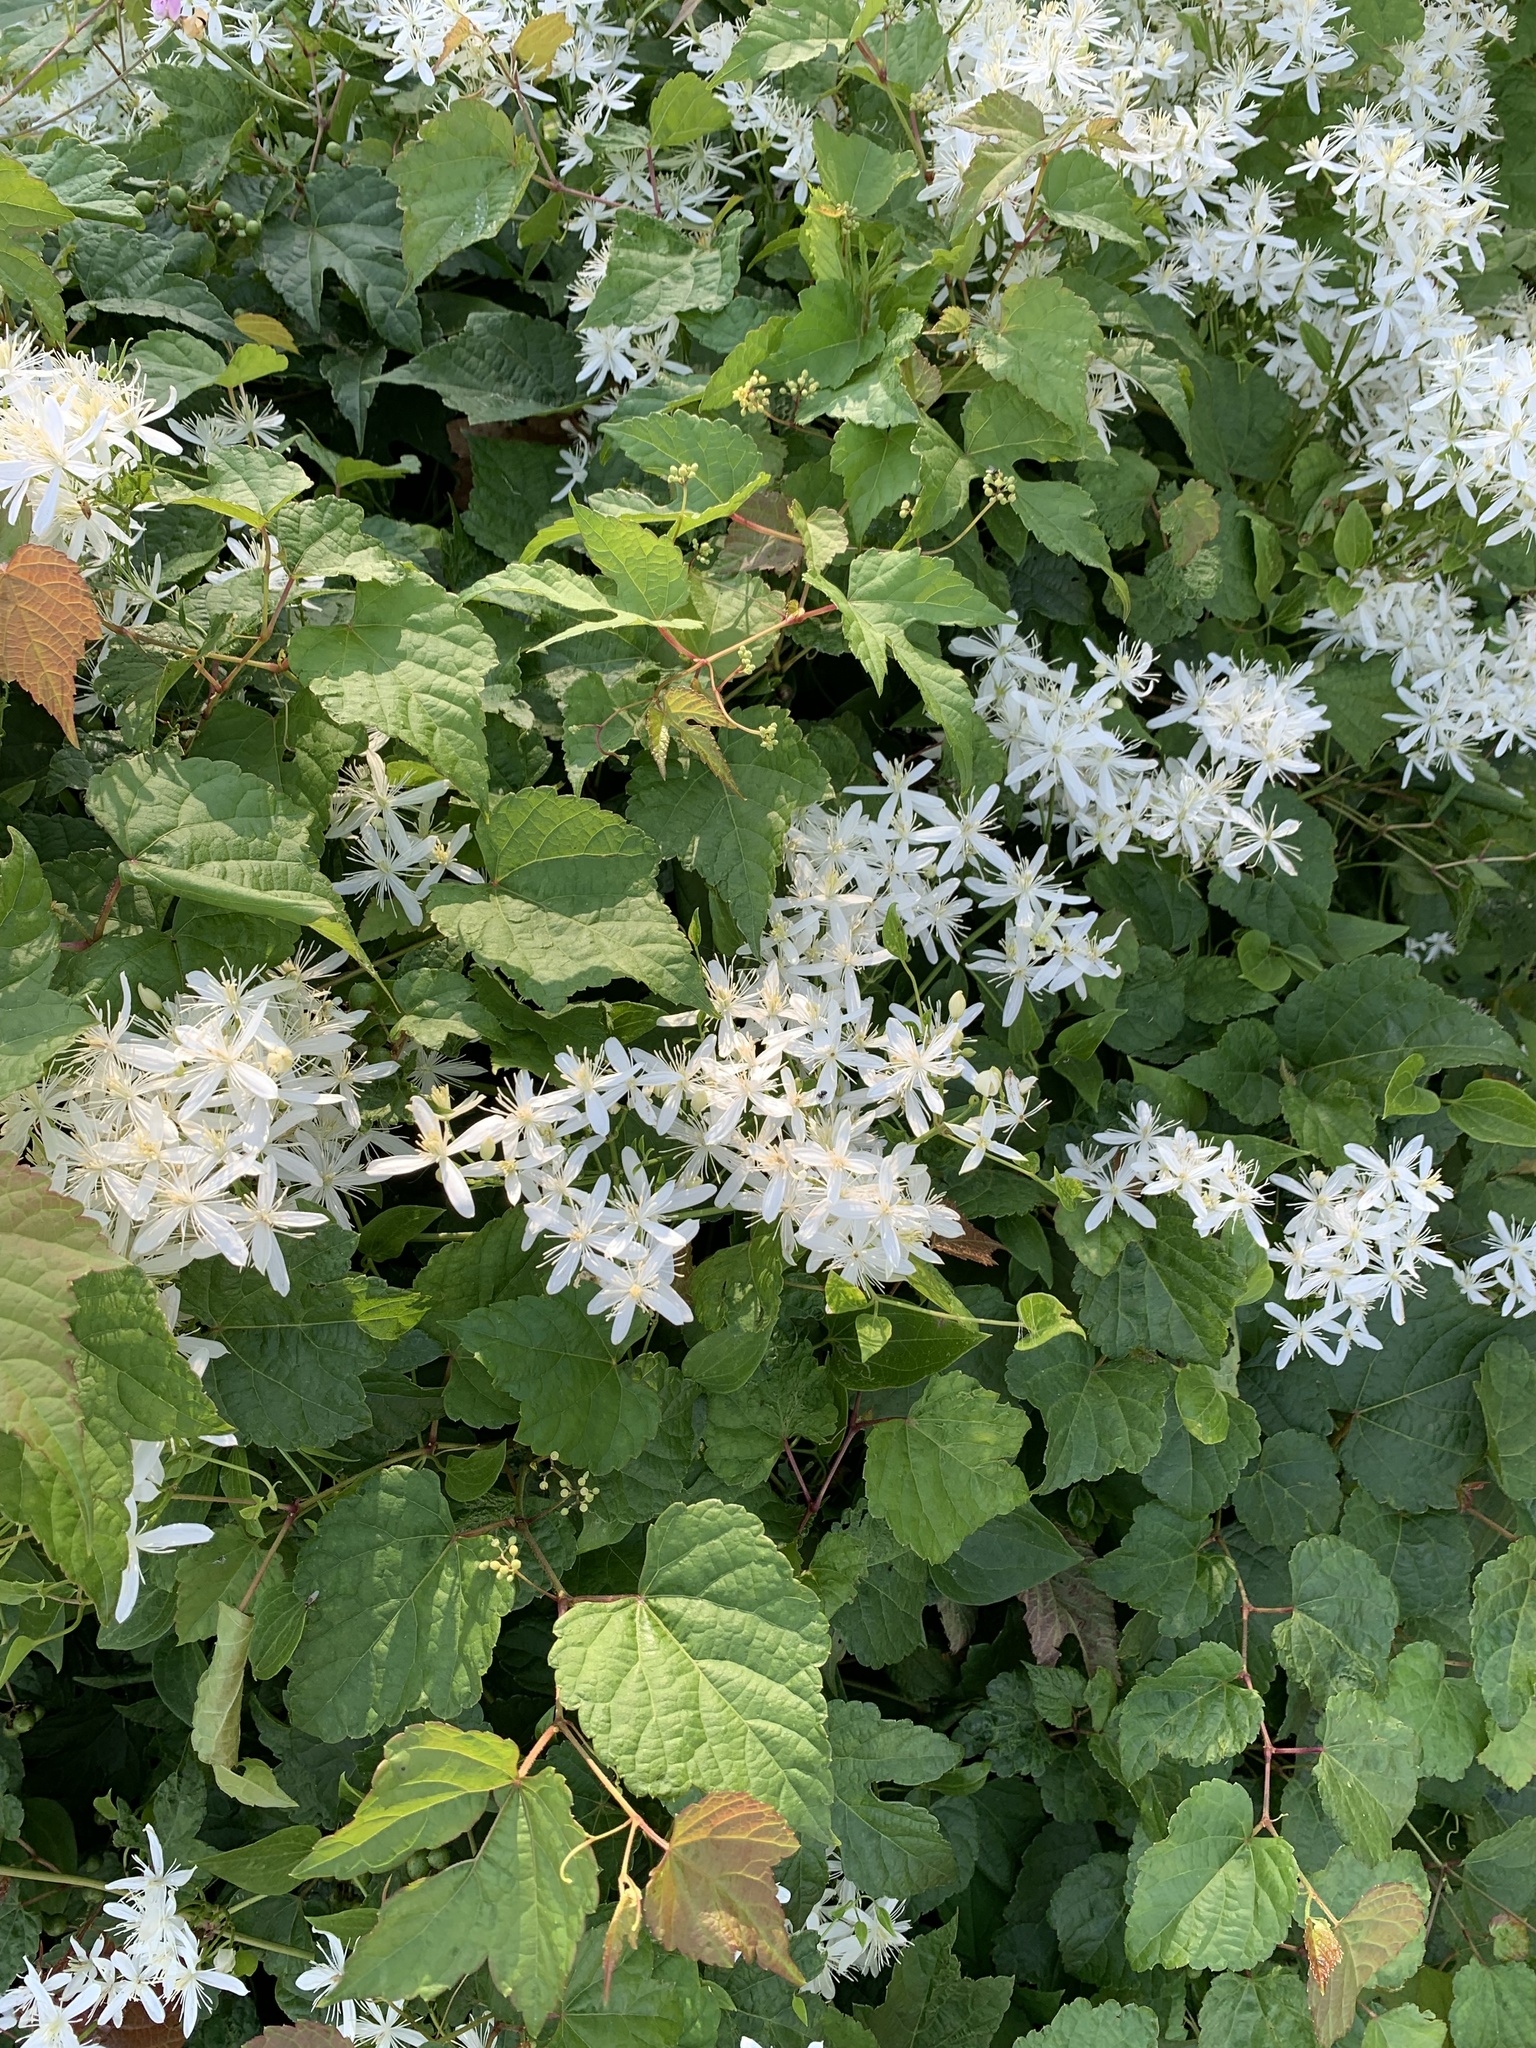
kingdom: Plantae
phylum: Tracheophyta
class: Magnoliopsida
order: Ranunculales
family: Ranunculaceae
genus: Clematis
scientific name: Clematis terniflora
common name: Sweet autumn clematis
